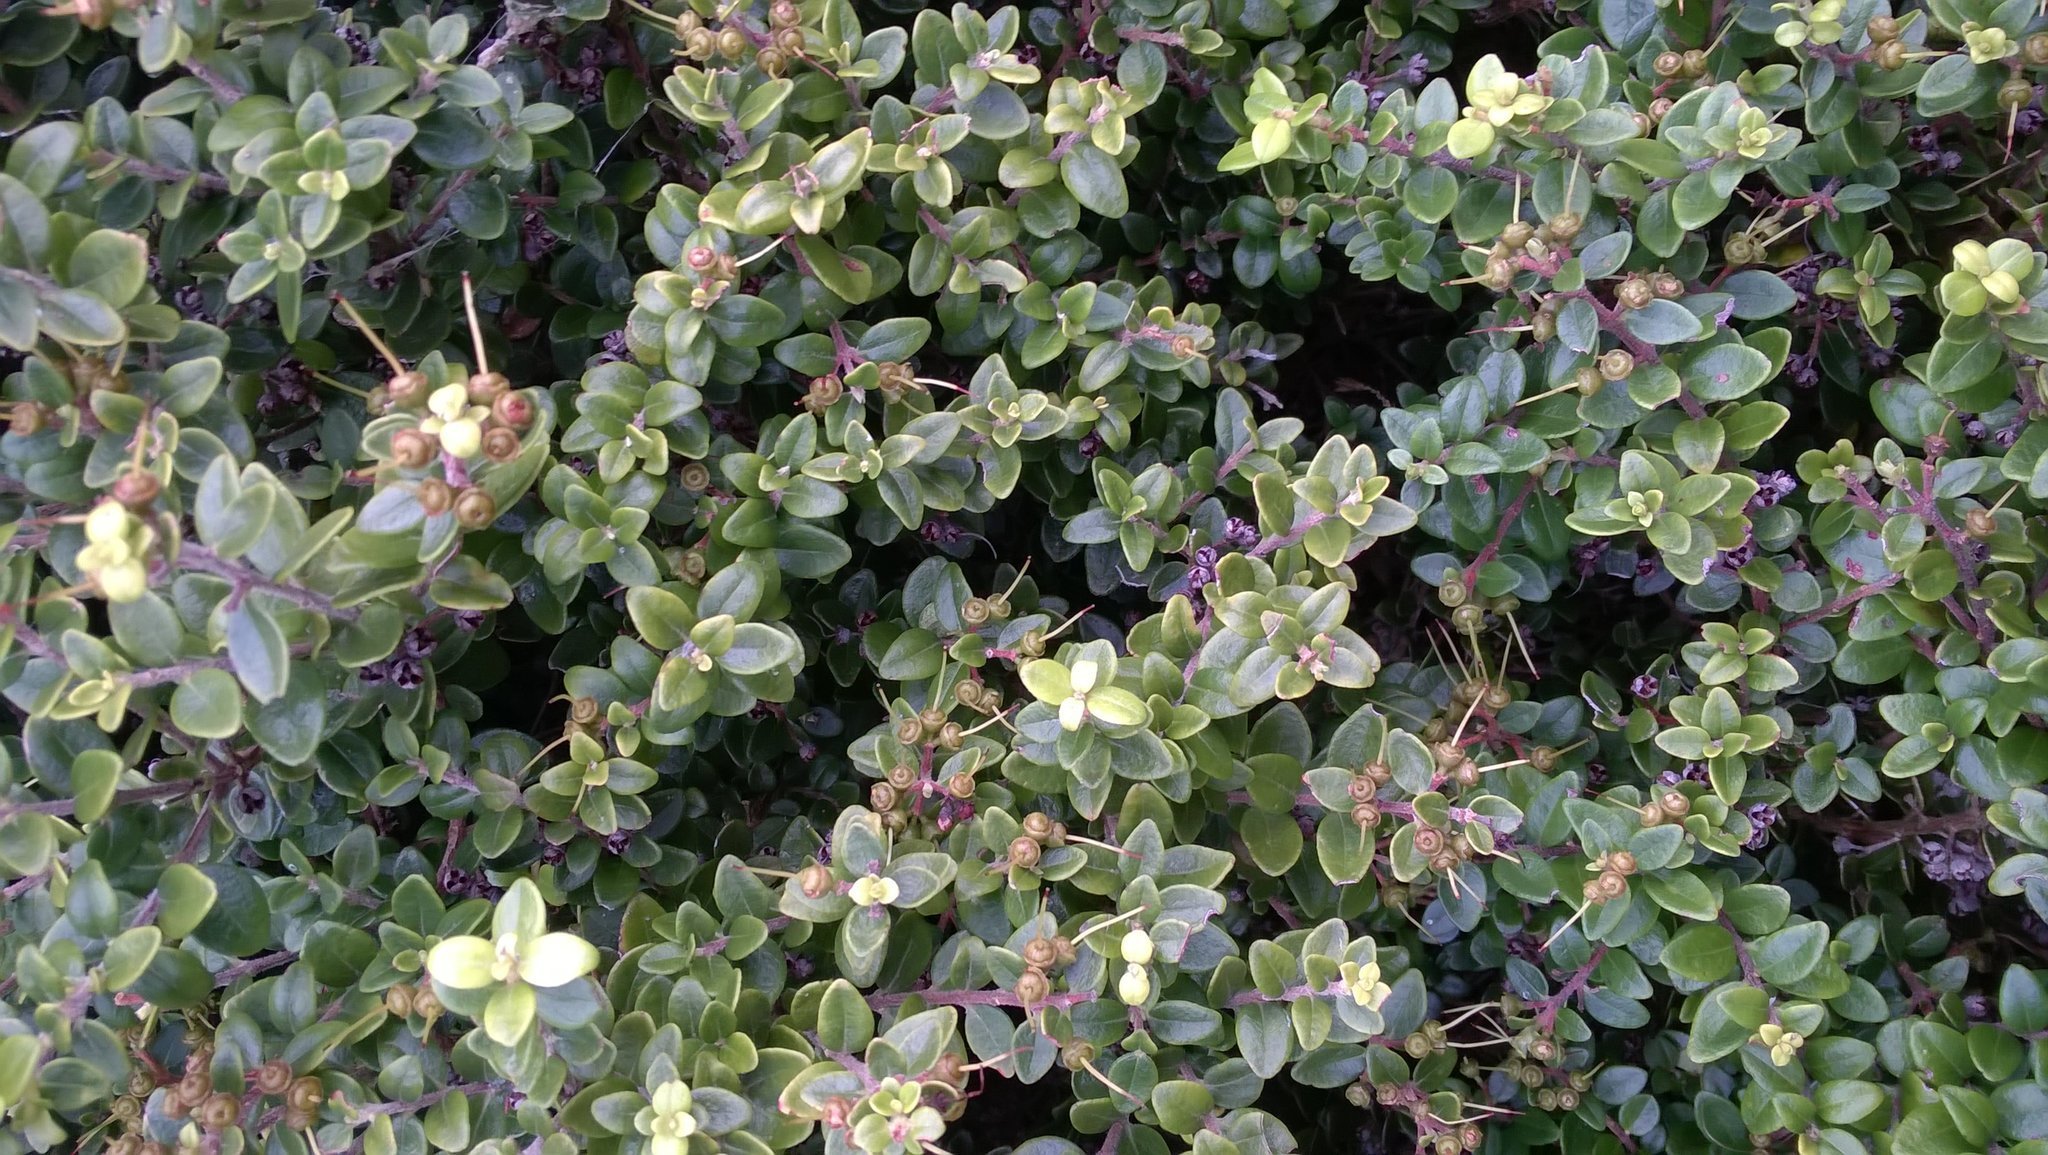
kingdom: Plantae
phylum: Tracheophyta
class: Magnoliopsida
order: Myrtales
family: Myrtaceae
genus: Metrosideros
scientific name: Metrosideros perforata
